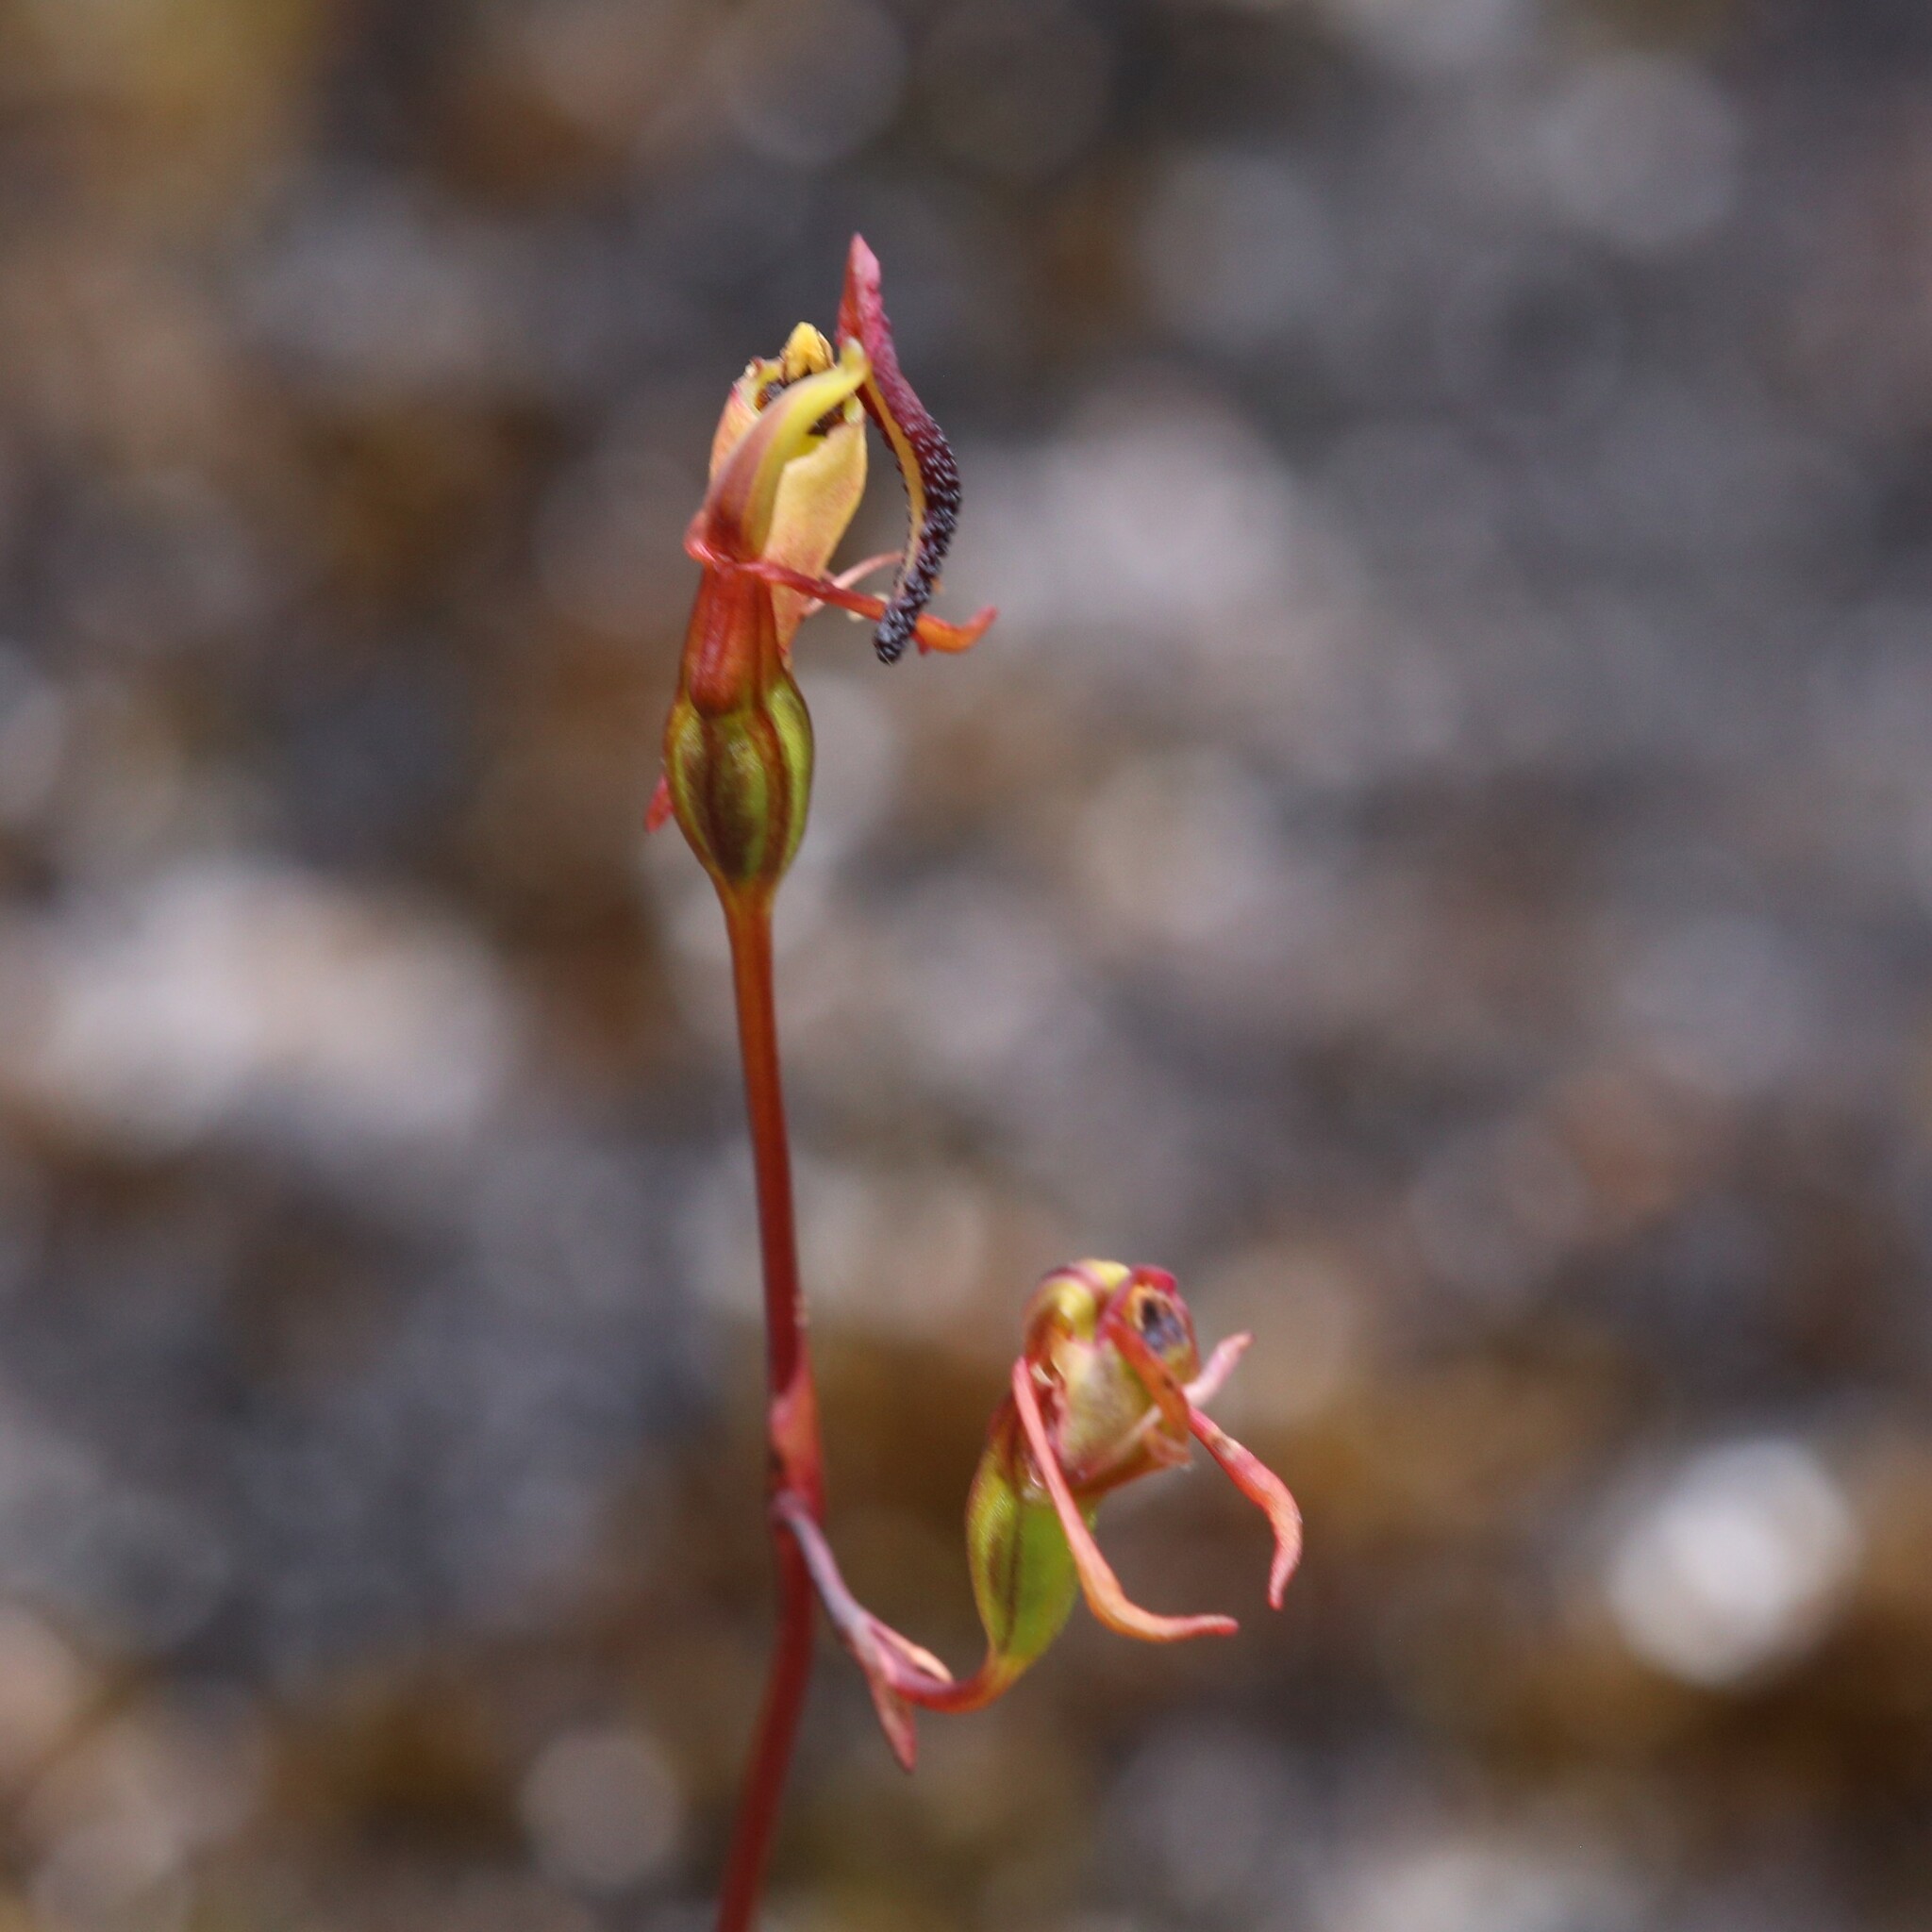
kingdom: Plantae
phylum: Tracheophyta
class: Liliopsida
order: Asparagales
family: Orchidaceae
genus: Caleana
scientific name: Caleana nigrita
